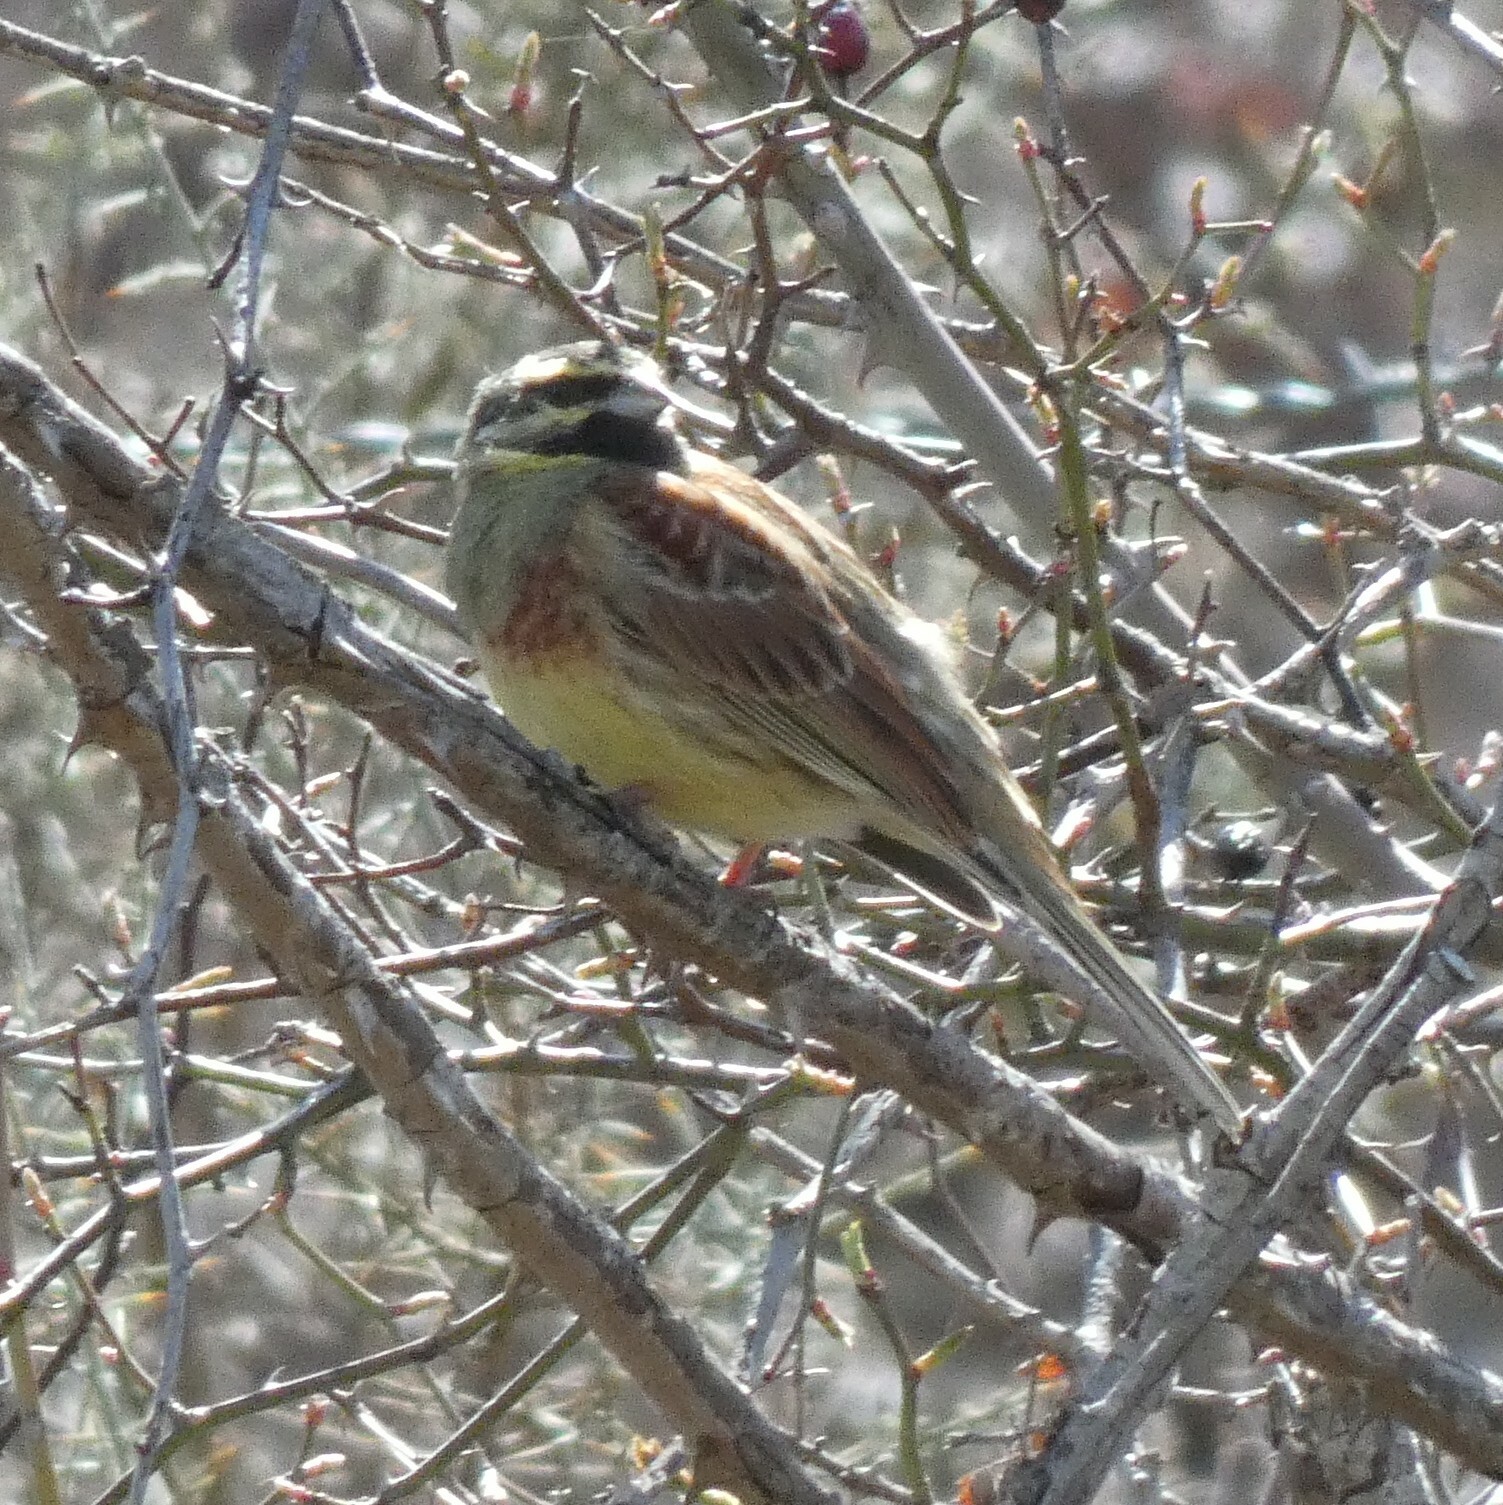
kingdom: Animalia
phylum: Chordata
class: Aves
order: Passeriformes
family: Emberizidae
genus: Emberiza
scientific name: Emberiza cirlus
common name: Cirl bunting
